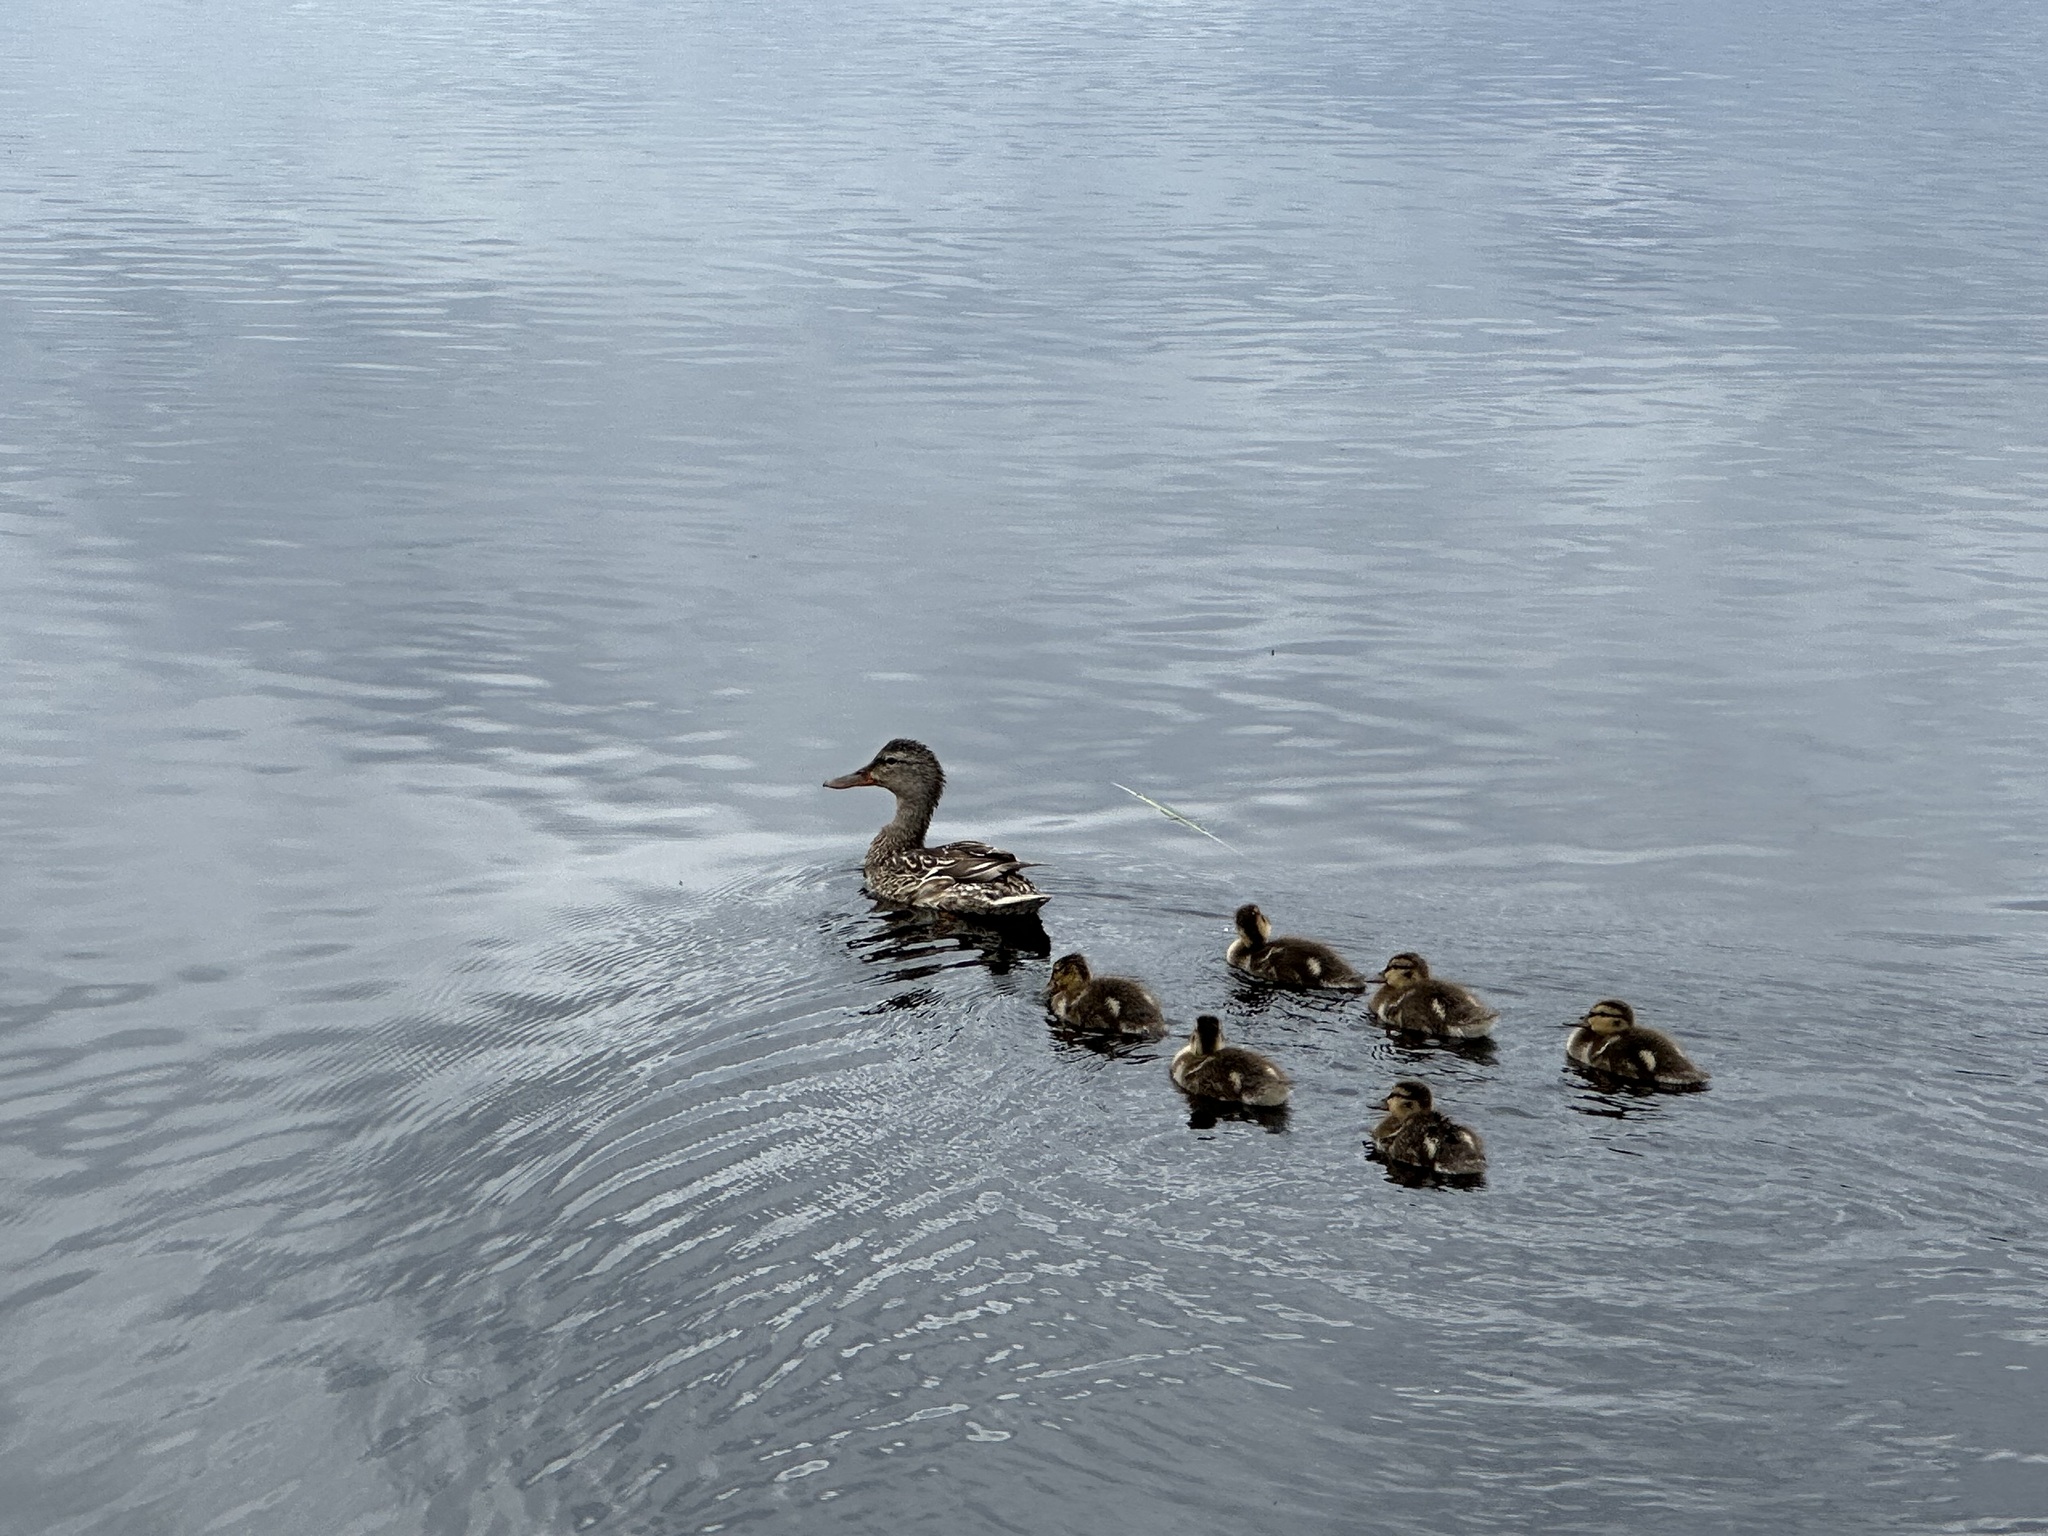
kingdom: Animalia
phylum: Chordata
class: Aves
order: Anseriformes
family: Anatidae
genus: Anas
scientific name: Anas platyrhynchos
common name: Mallard
